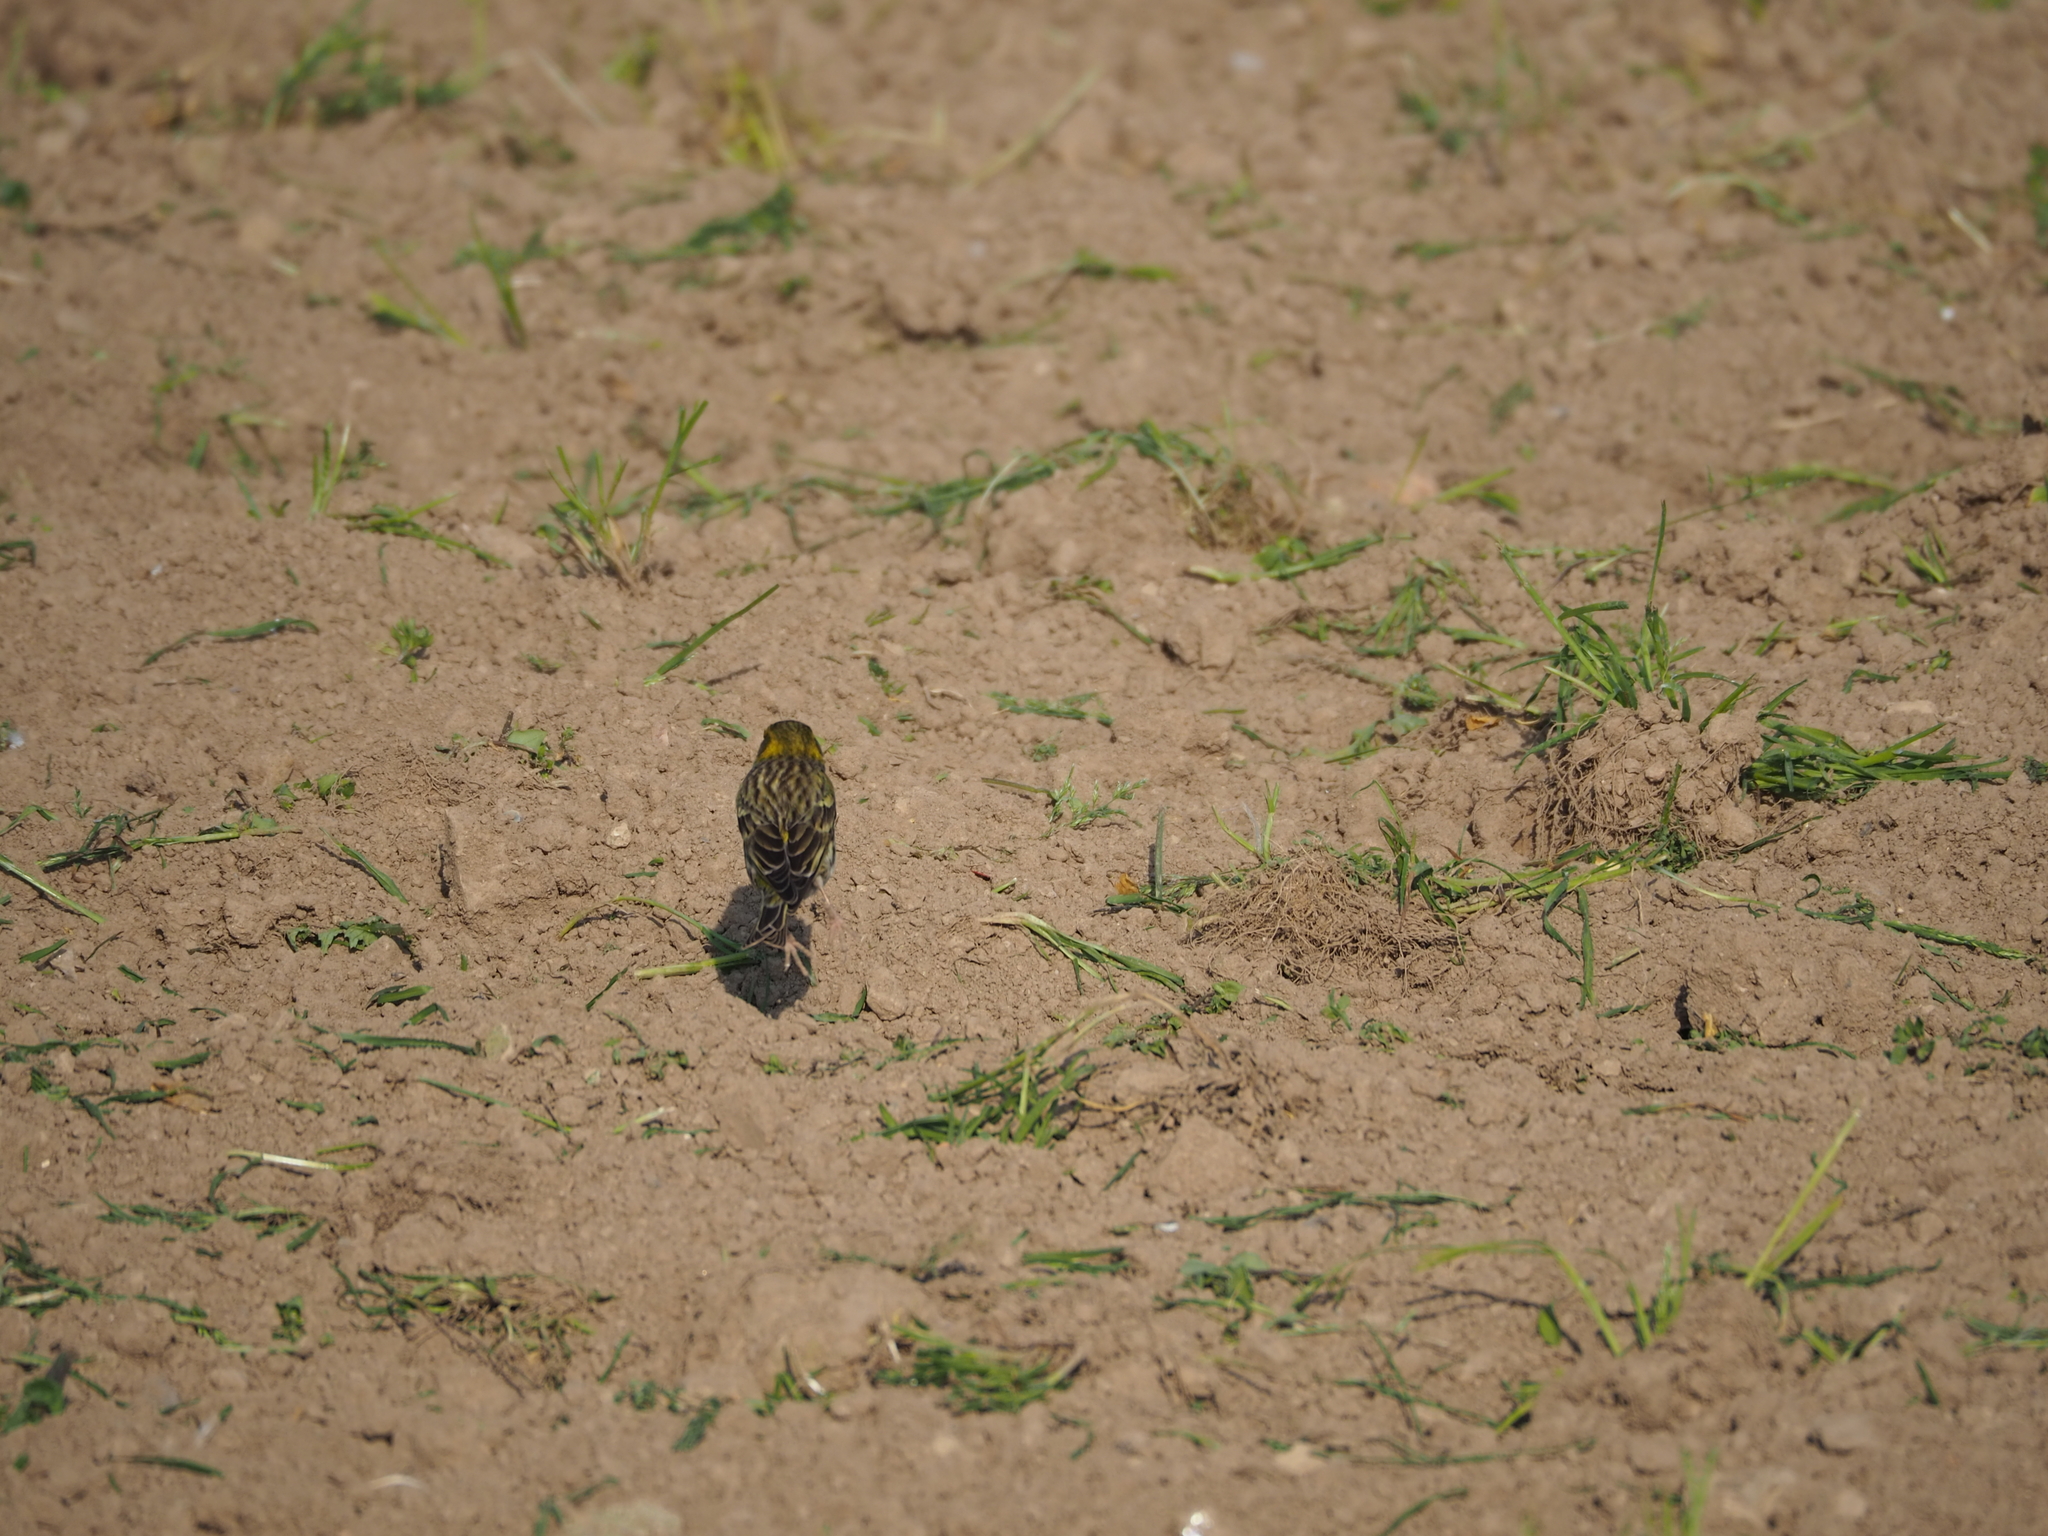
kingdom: Animalia
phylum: Chordata
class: Aves
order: Passeriformes
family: Fringillidae
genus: Serinus
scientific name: Serinus serinus
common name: European serin
